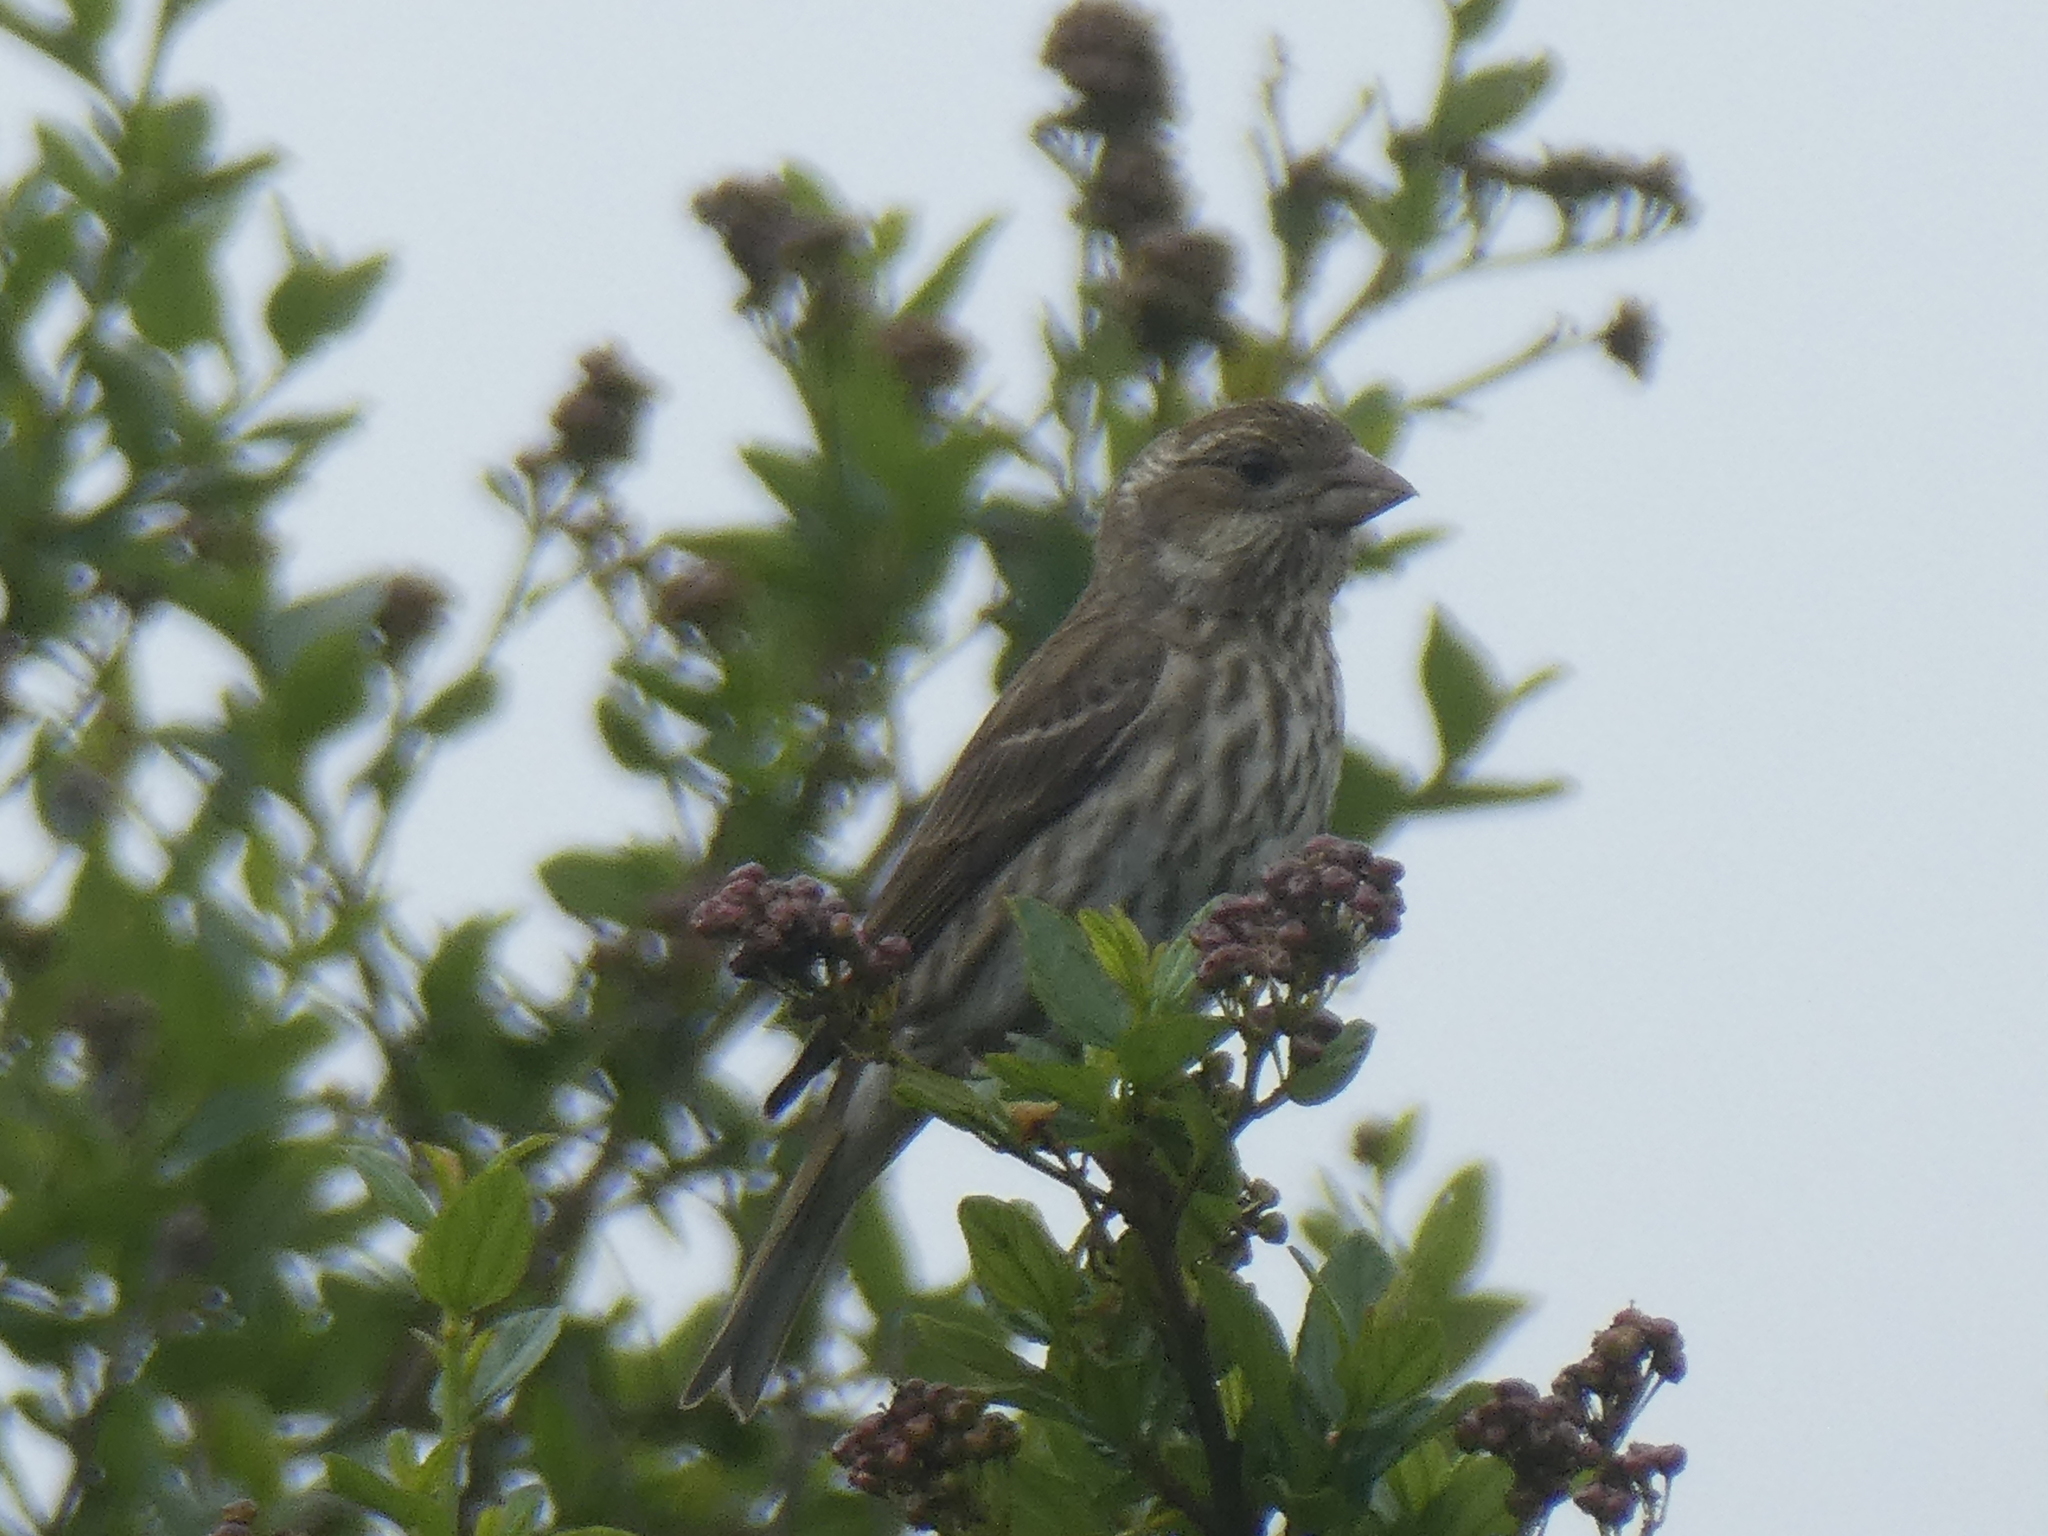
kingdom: Animalia
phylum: Chordata
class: Aves
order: Passeriformes
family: Fringillidae
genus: Haemorhous
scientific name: Haemorhous purpureus
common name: Purple finch
